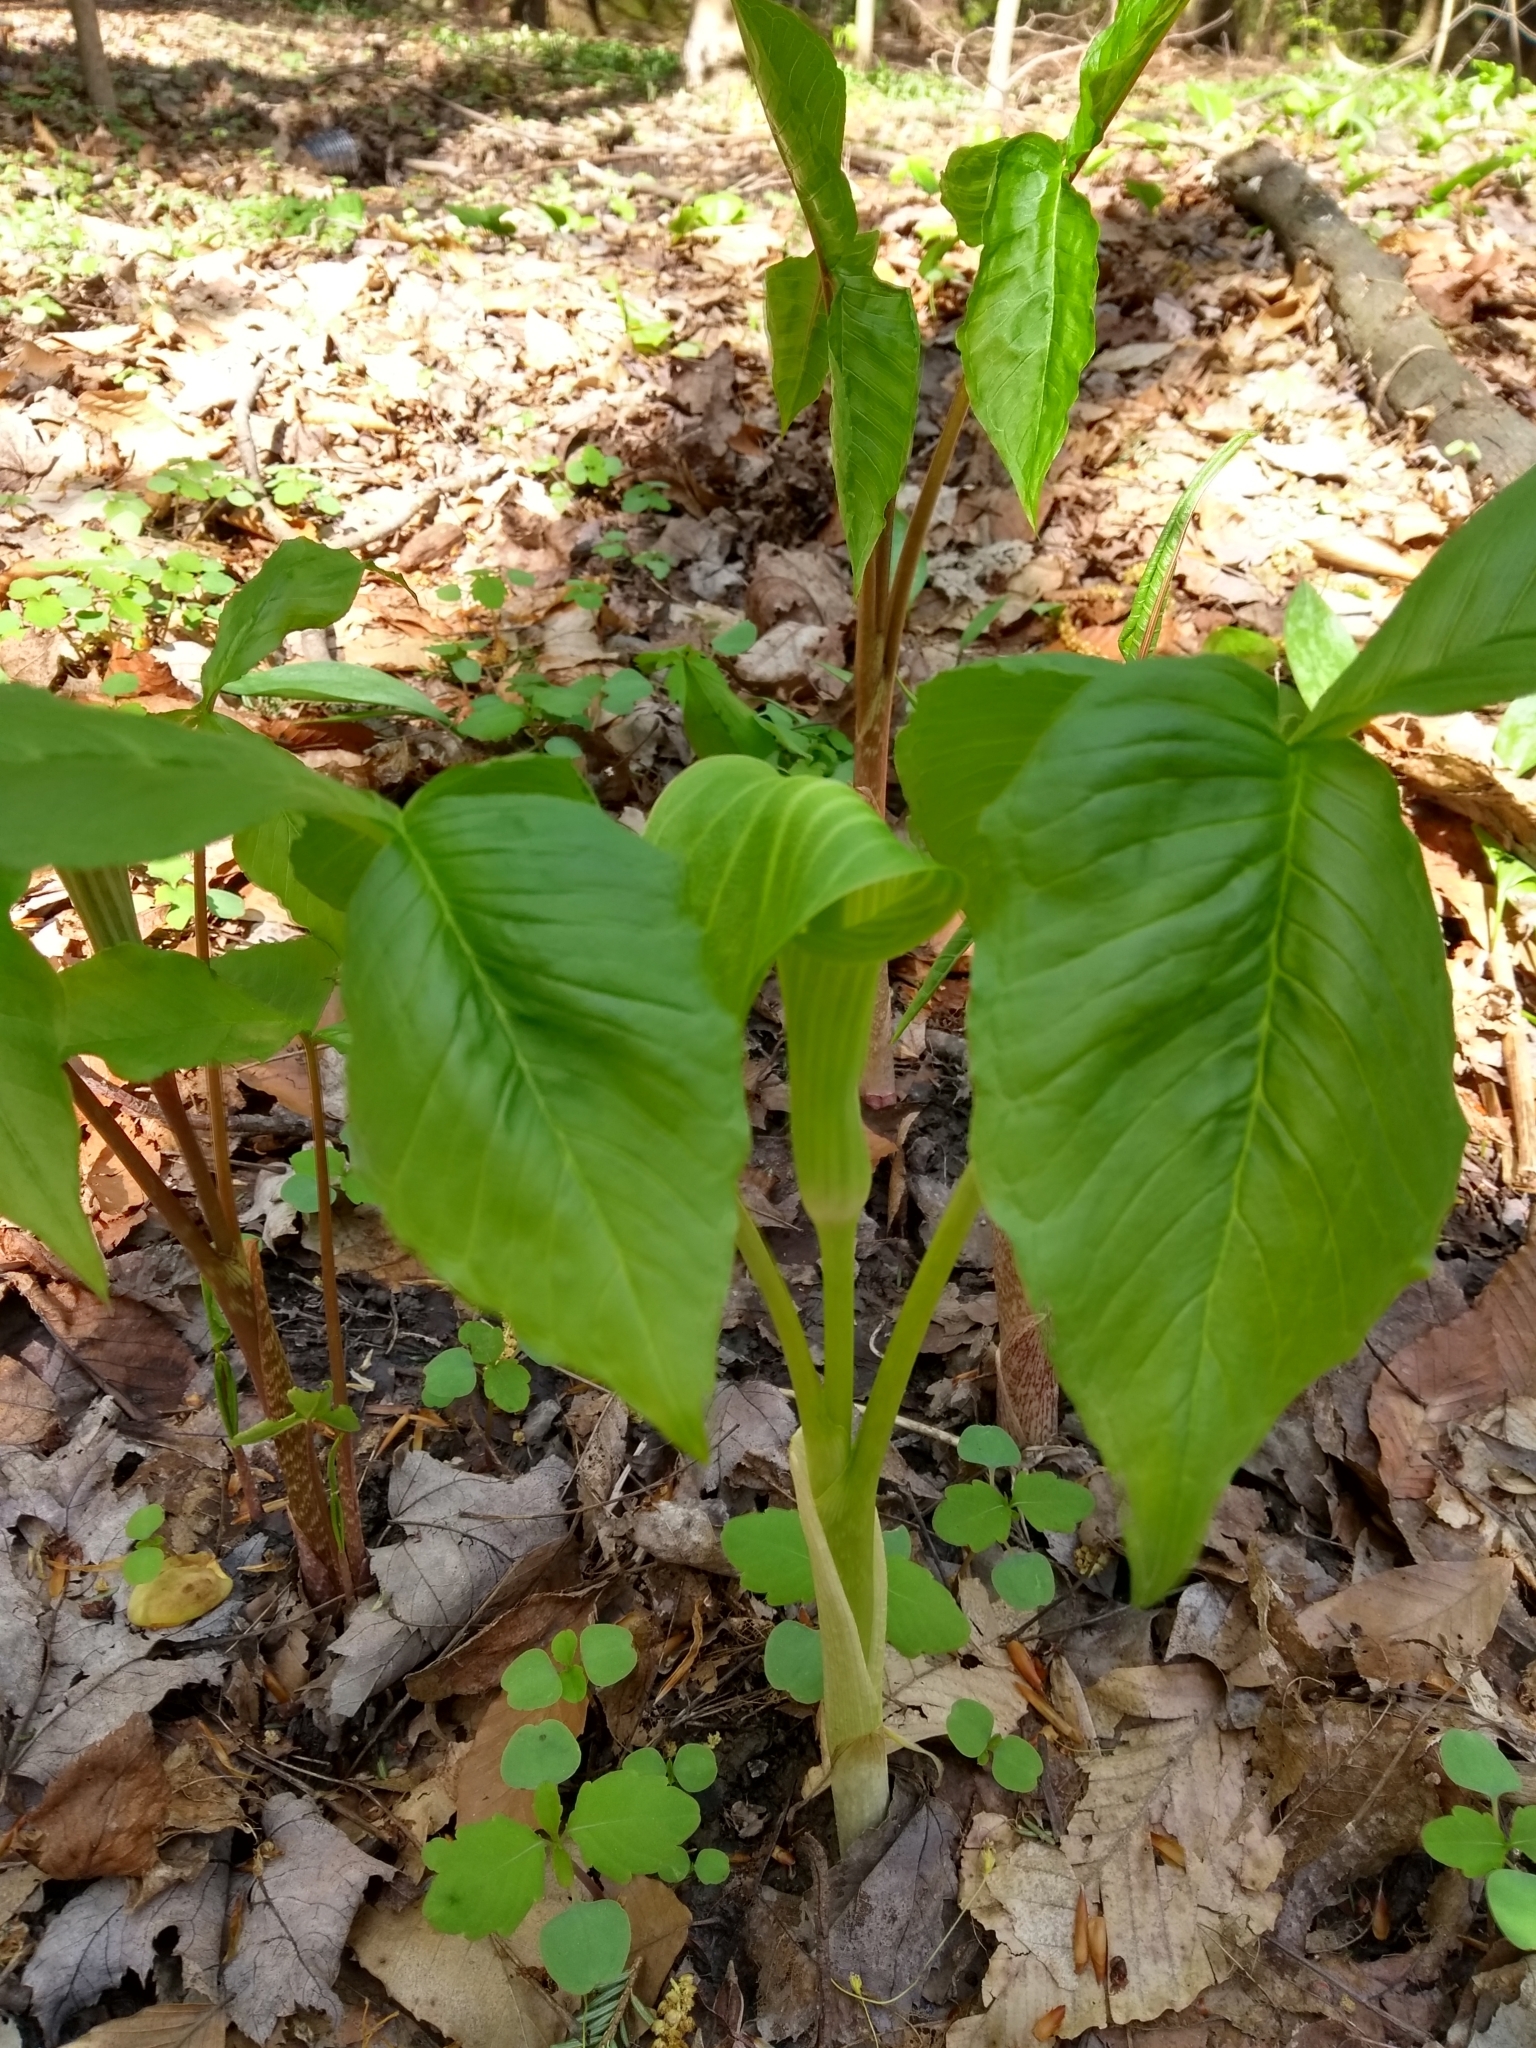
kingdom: Plantae
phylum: Tracheophyta
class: Liliopsida
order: Alismatales
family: Araceae
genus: Arisaema
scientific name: Arisaema triphyllum
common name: Jack-in-the-pulpit
